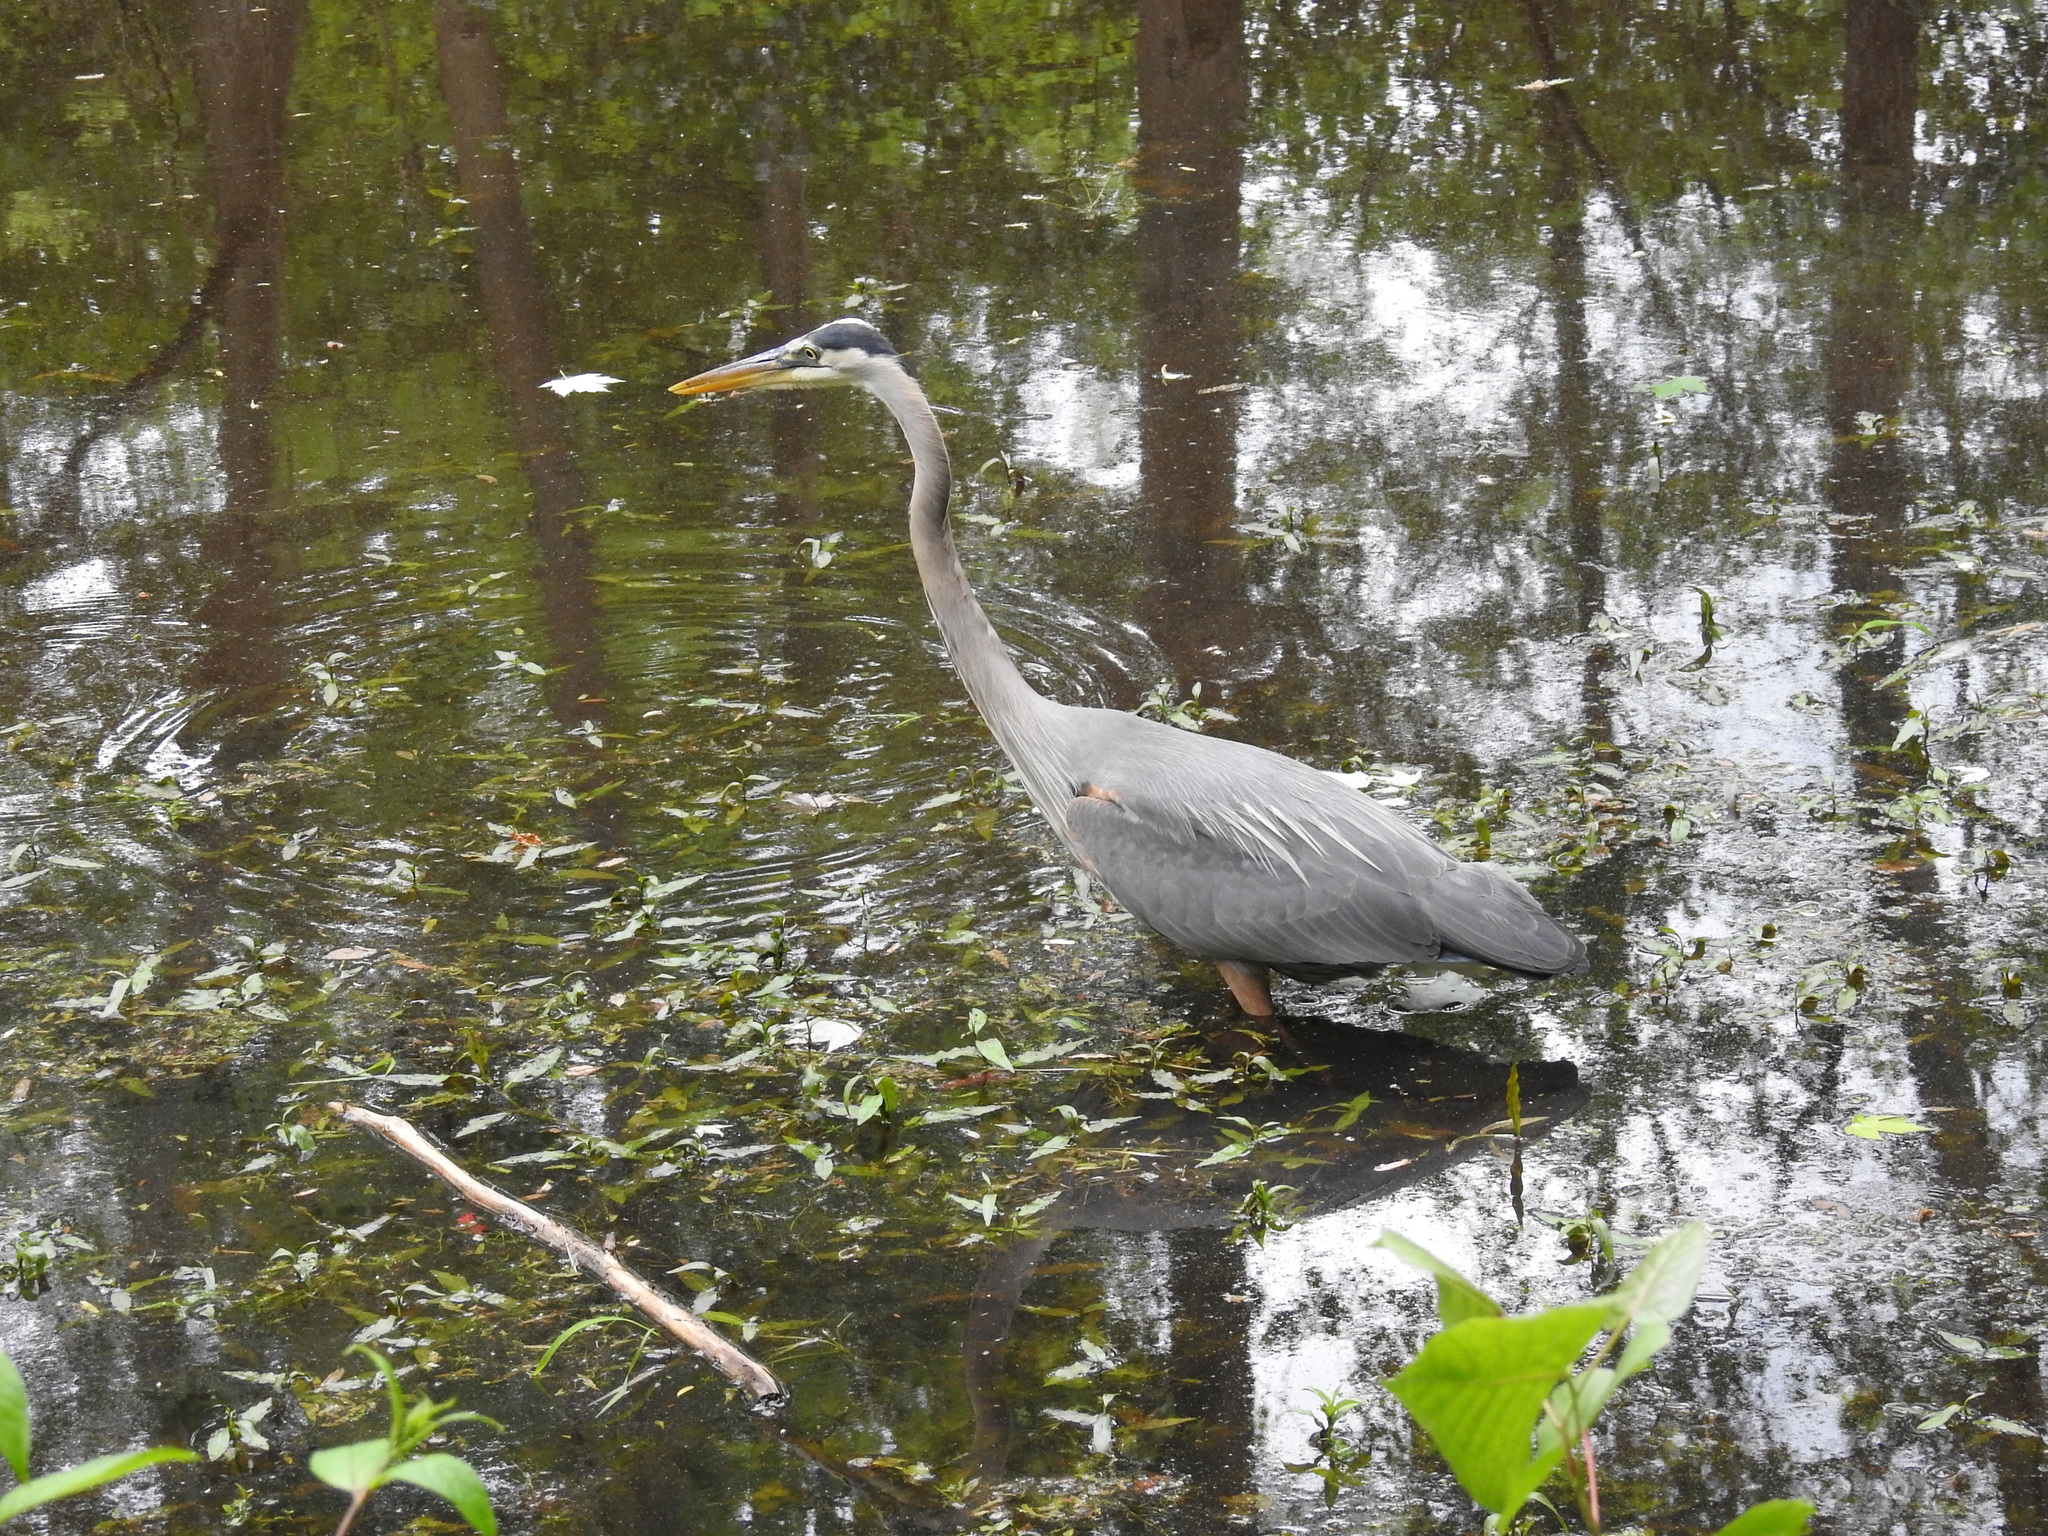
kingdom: Animalia
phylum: Chordata
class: Aves
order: Pelecaniformes
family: Ardeidae
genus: Ardea
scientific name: Ardea herodias
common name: Great blue heron
